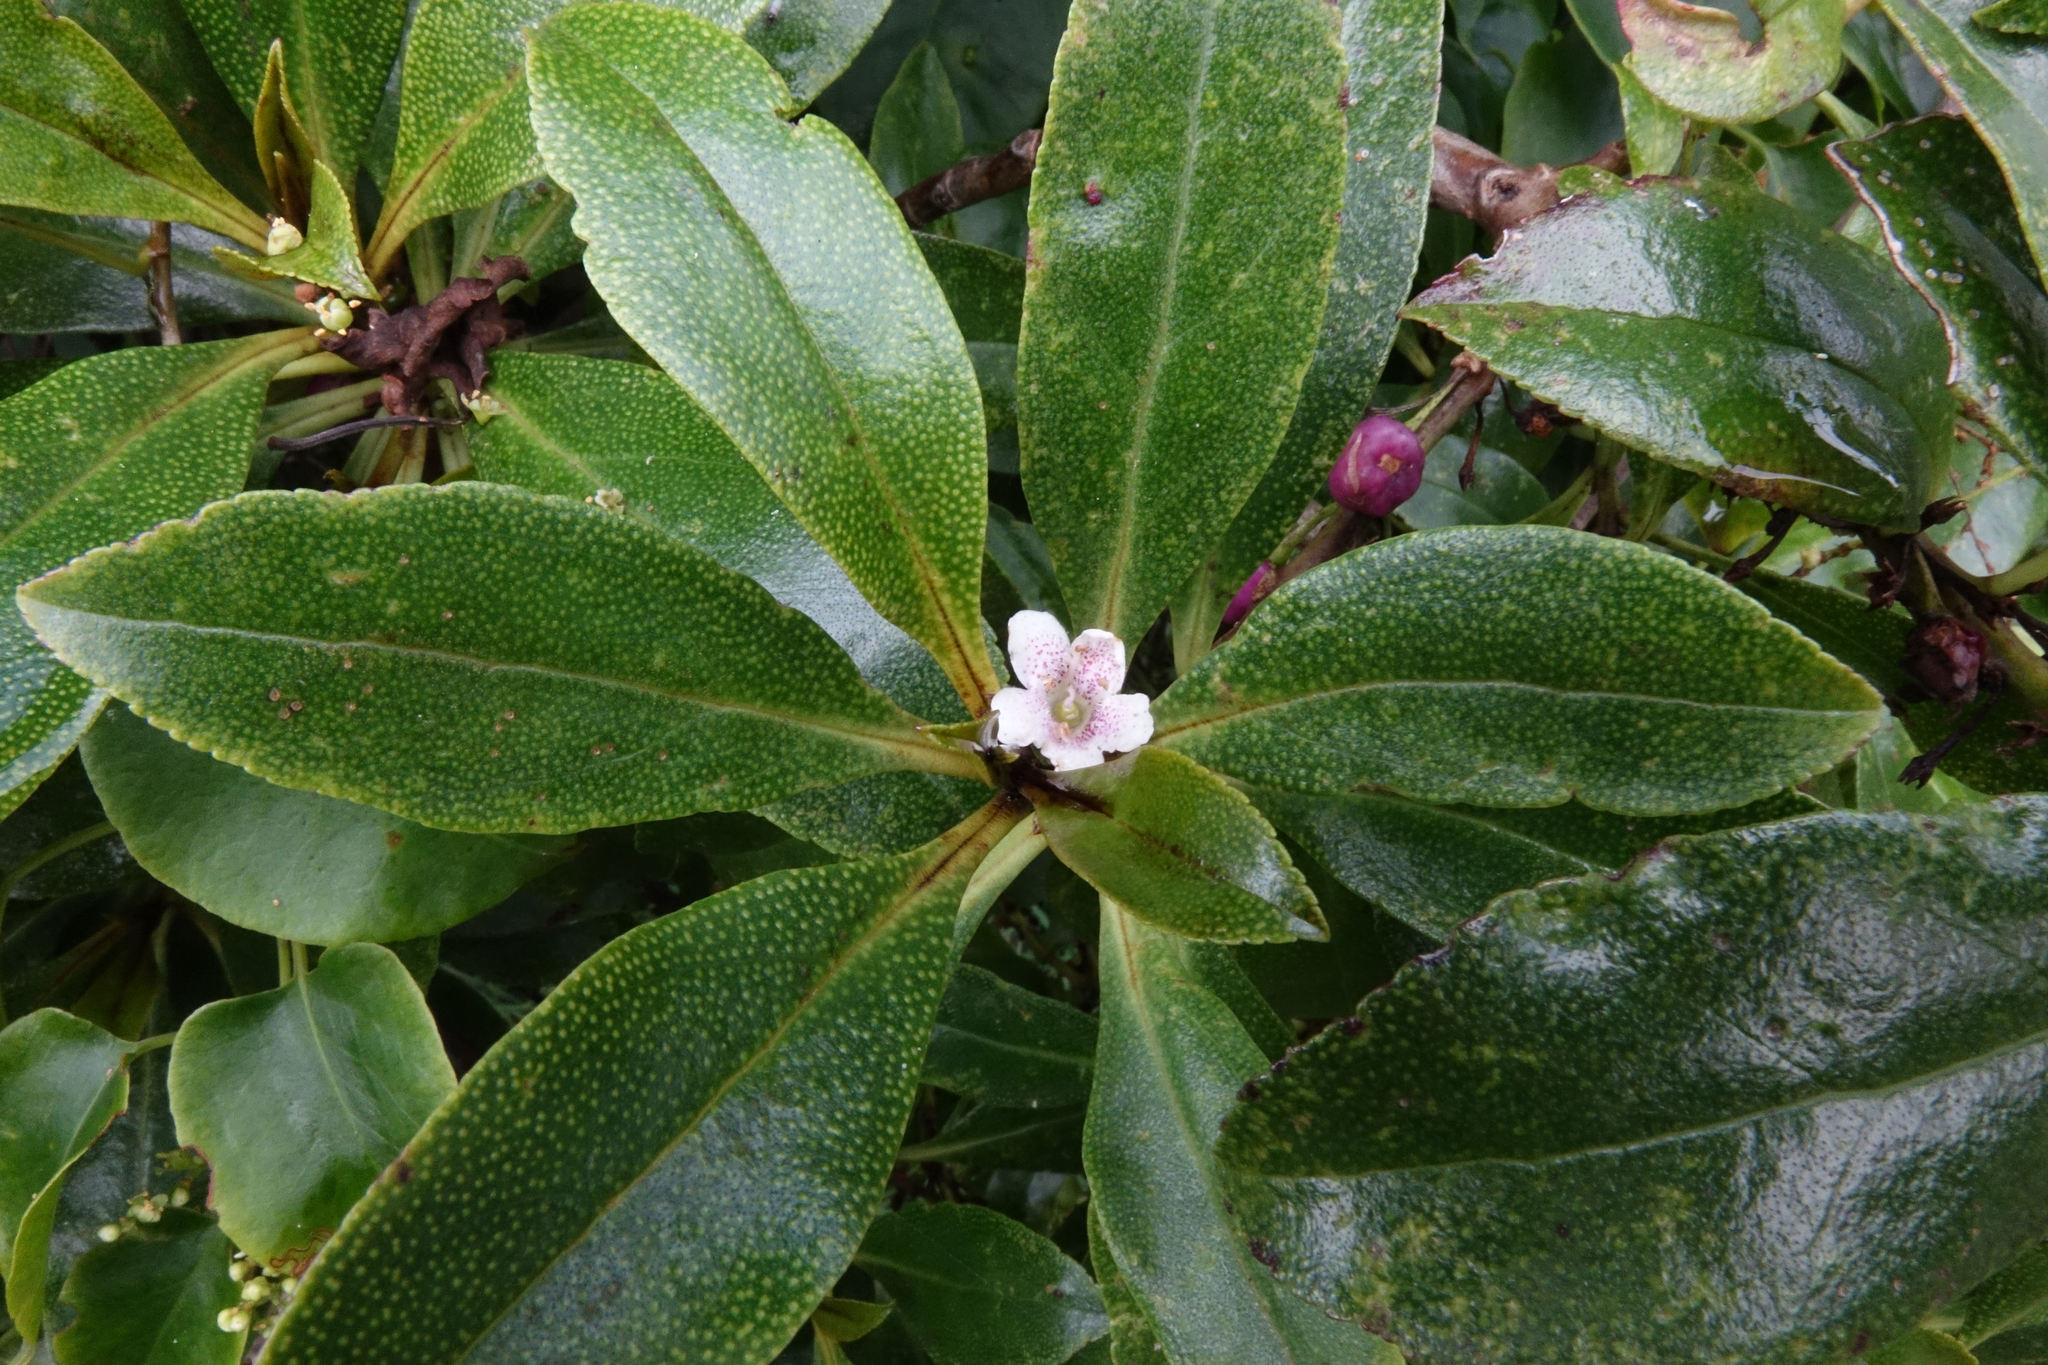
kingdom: Plantae
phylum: Tracheophyta
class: Magnoliopsida
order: Lamiales
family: Scrophulariaceae
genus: Myoporum
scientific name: Myoporum laetum
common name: Ngaio tree
